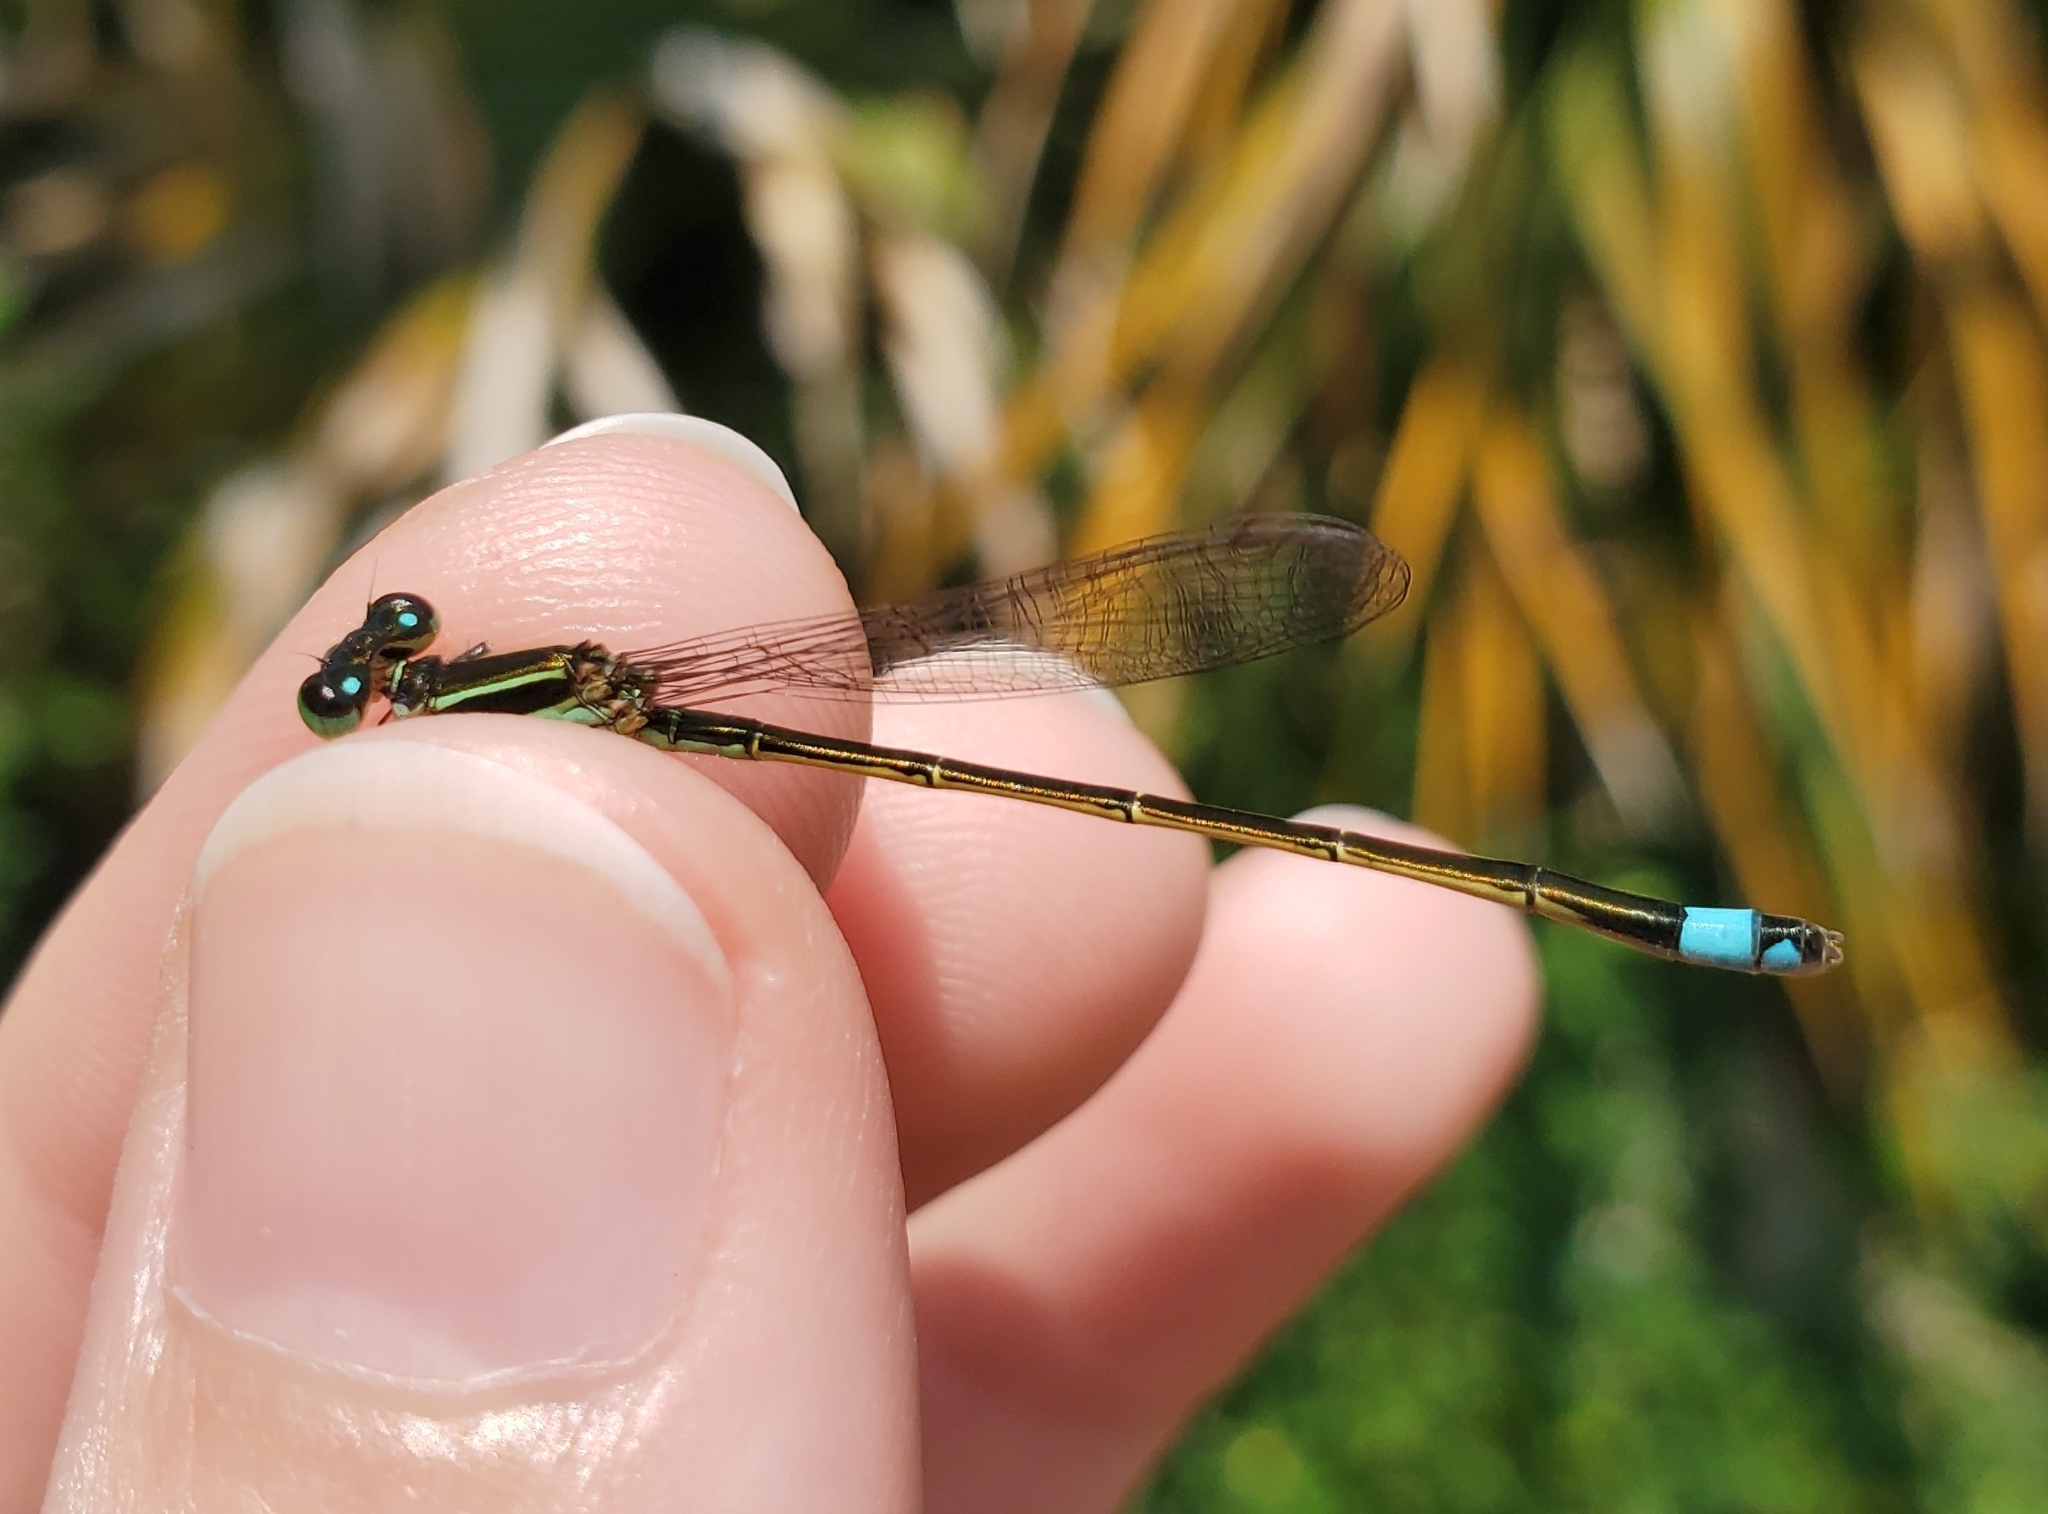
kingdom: Animalia
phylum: Arthropoda
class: Insecta
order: Odonata
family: Coenagrionidae
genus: Ischnura
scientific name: Ischnura ramburii
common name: Rambur's forktail
